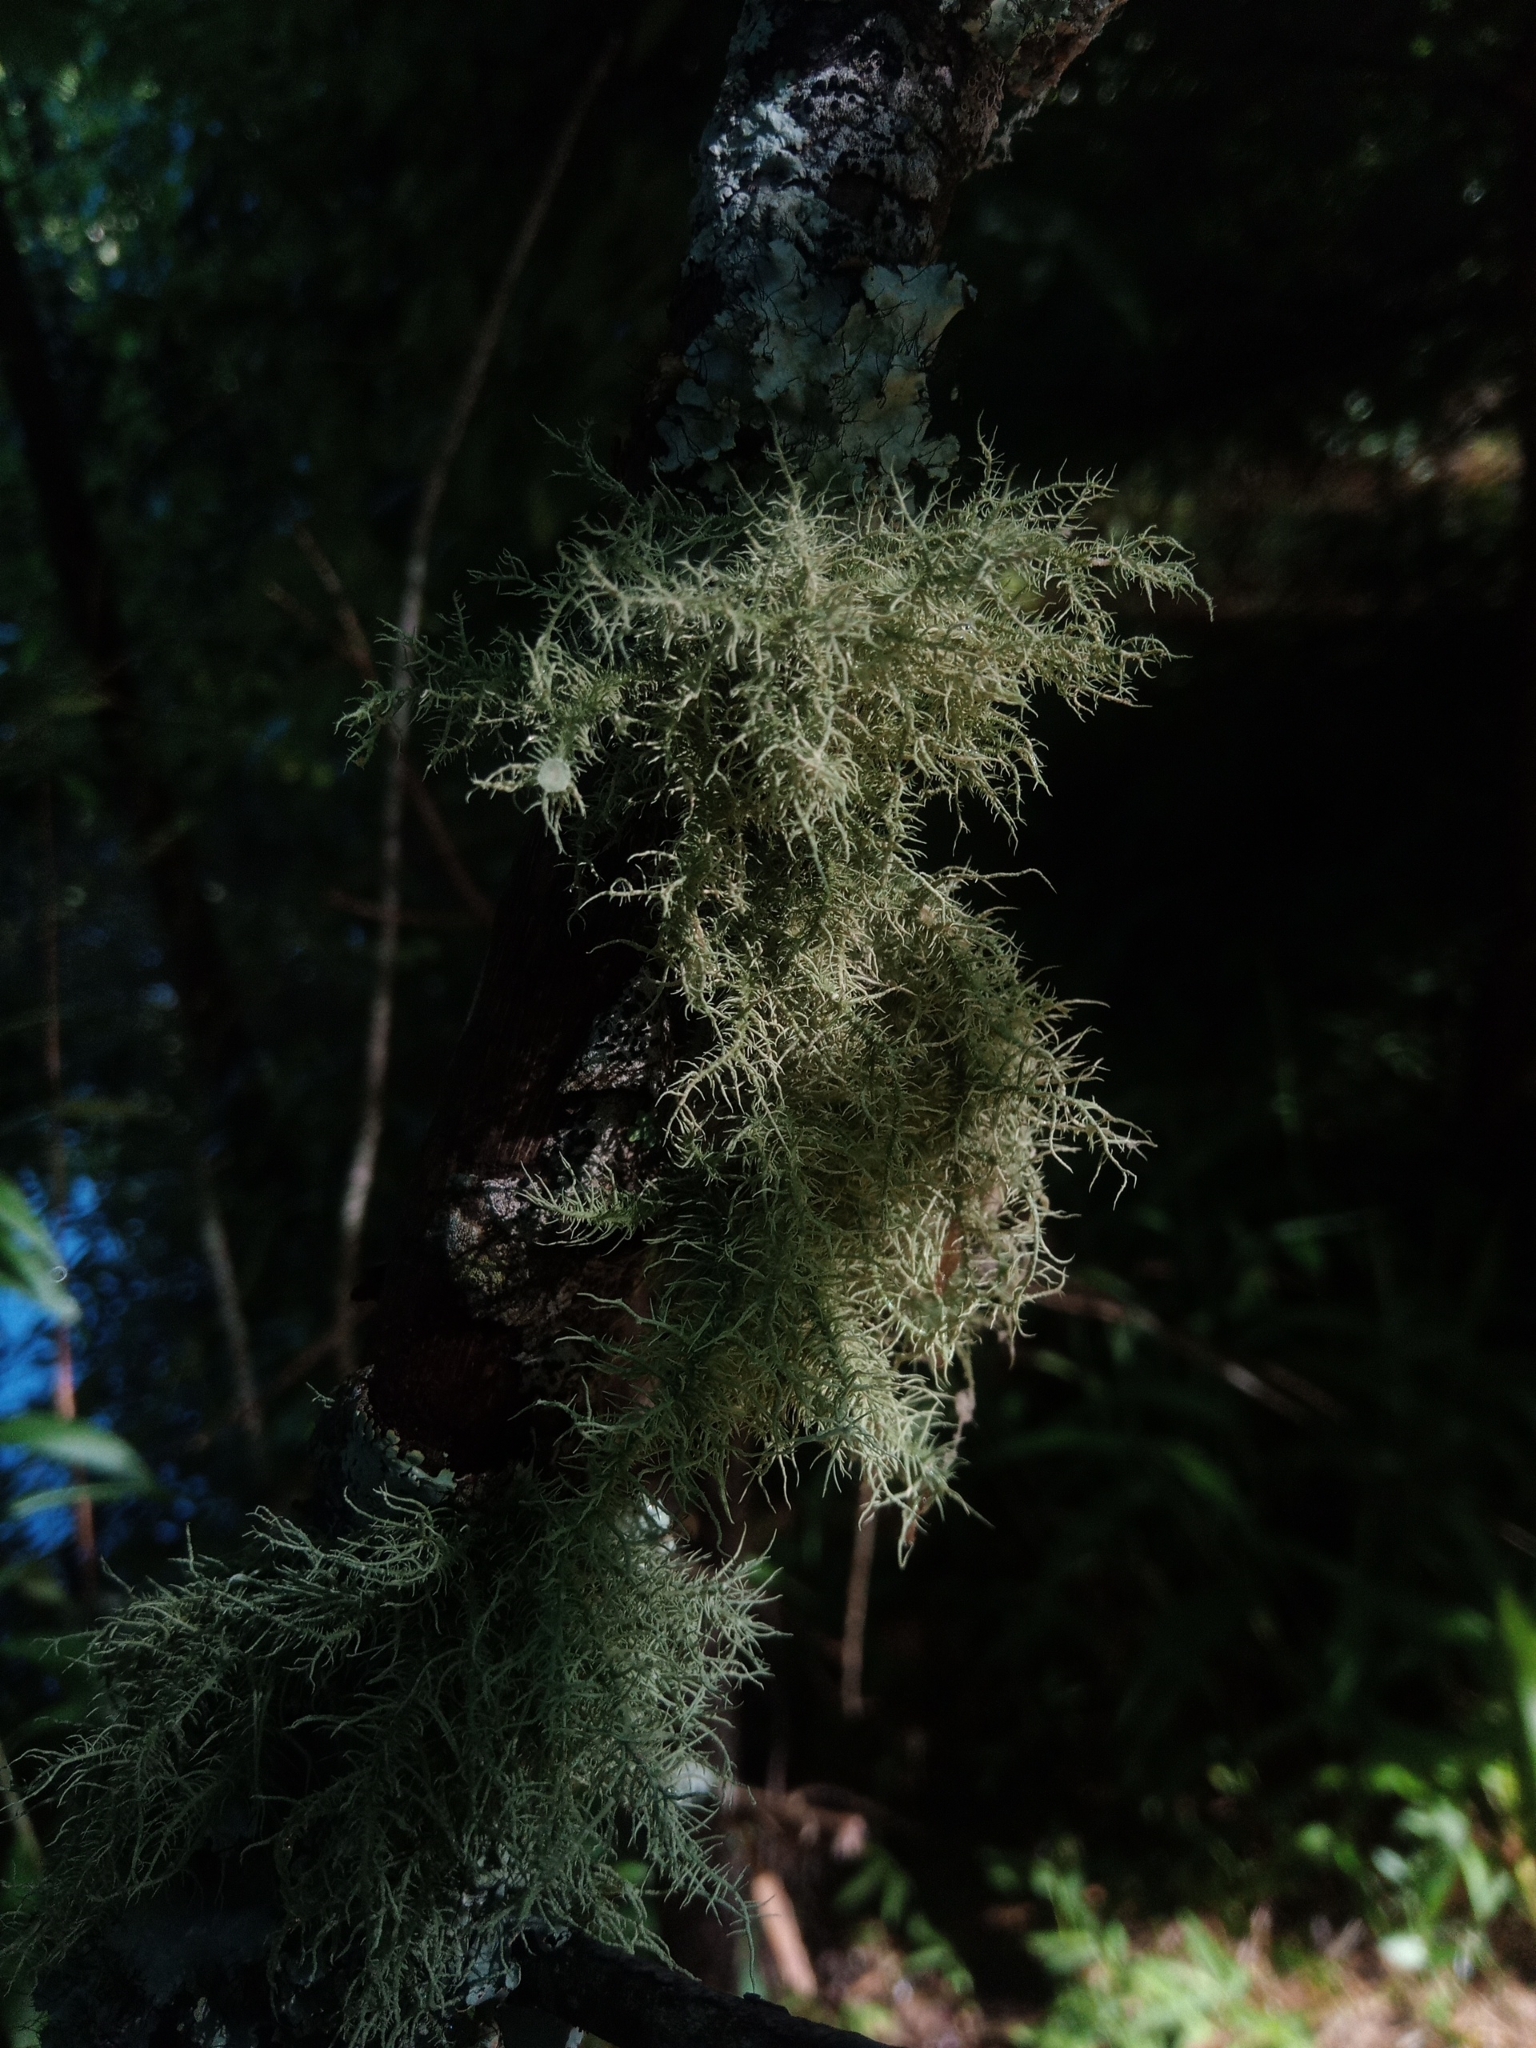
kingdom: Fungi
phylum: Ascomycota
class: Lecanoromycetes
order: Lecanorales
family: Parmeliaceae
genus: Usnea
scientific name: Usnea strigosa
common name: Bushy beard lichen
